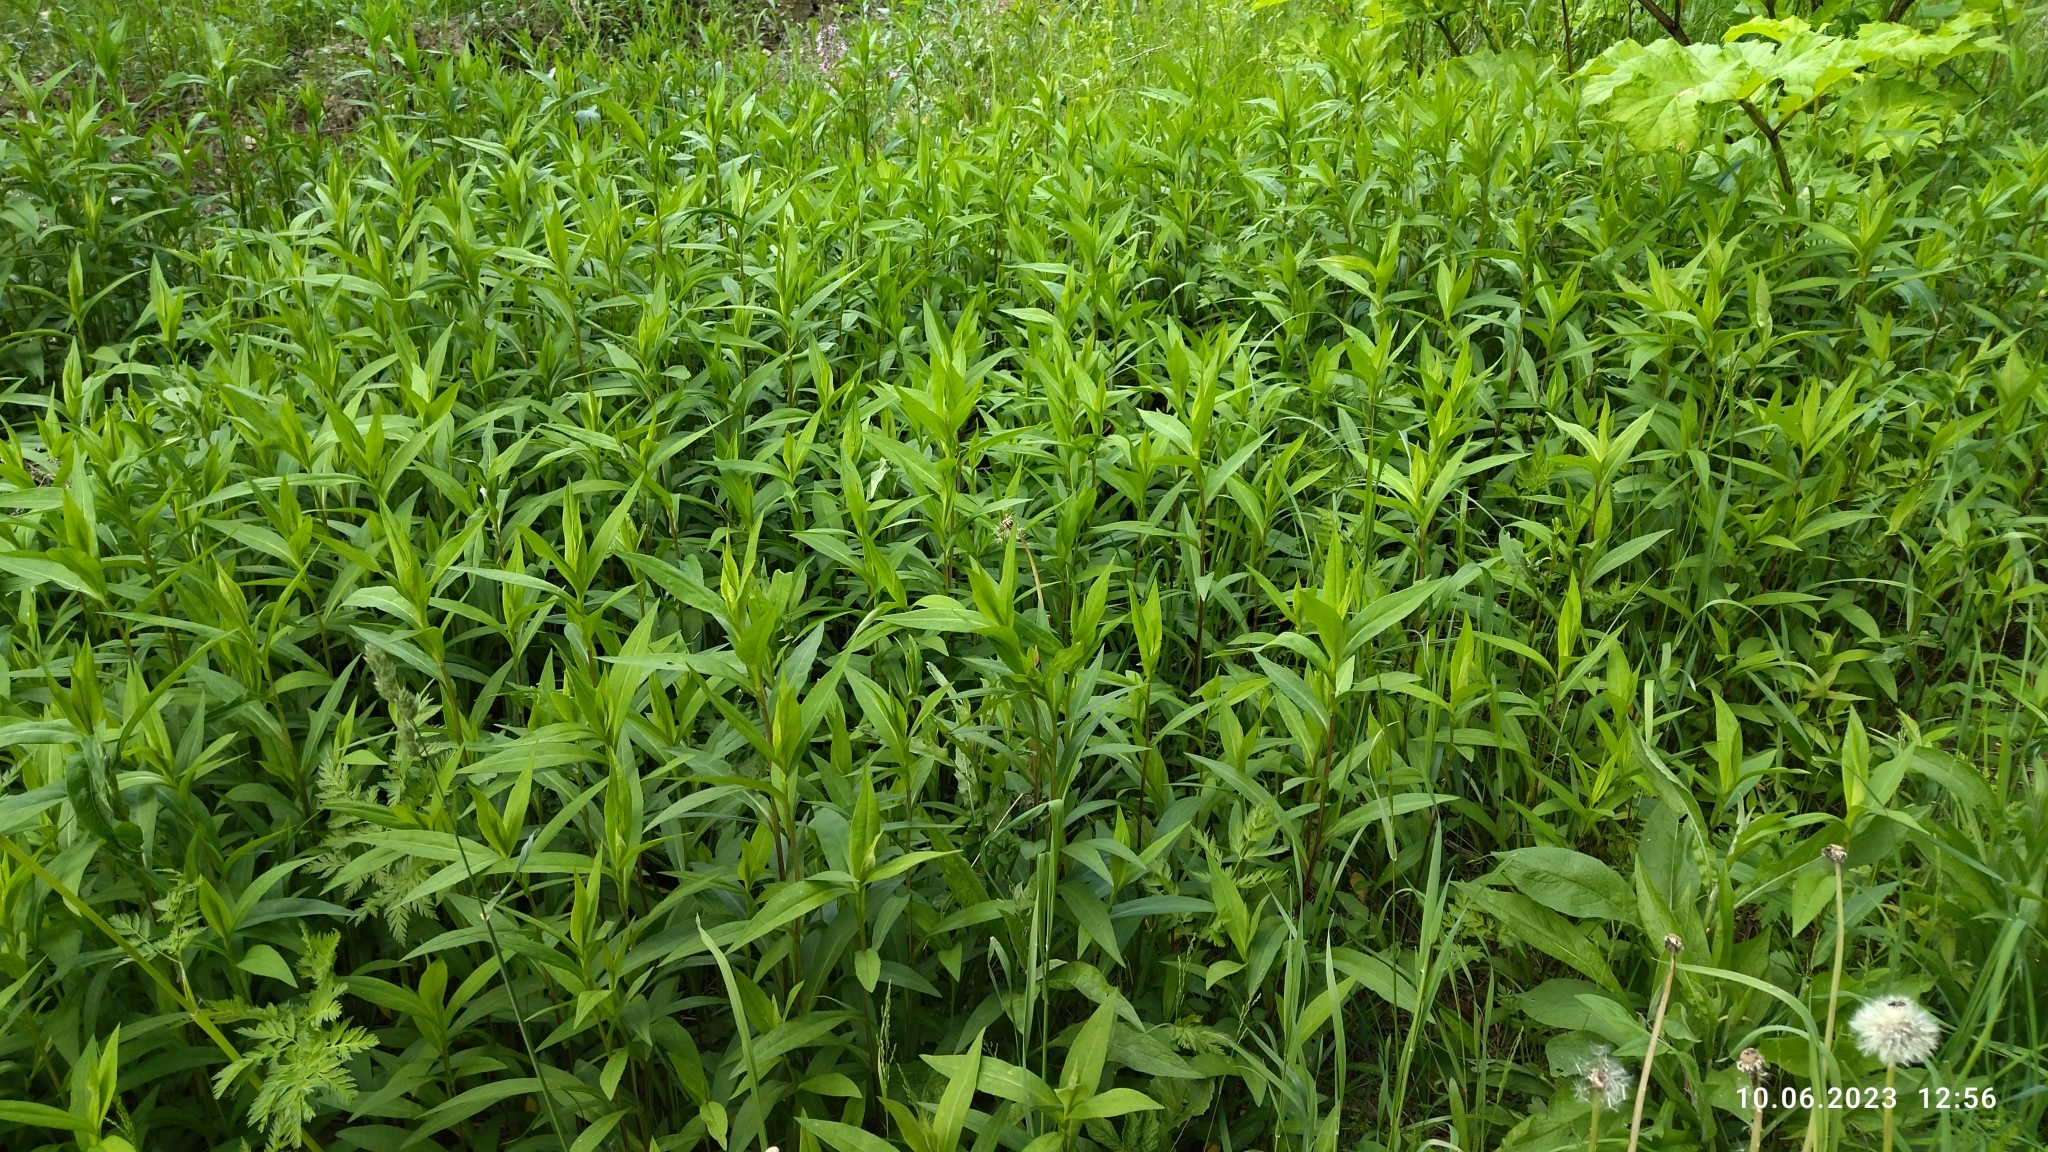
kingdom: Plantae
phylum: Tracheophyta
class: Magnoliopsida
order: Asterales
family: Asteraceae
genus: Solidago
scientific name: Solidago gigantea
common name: Giant goldenrod
